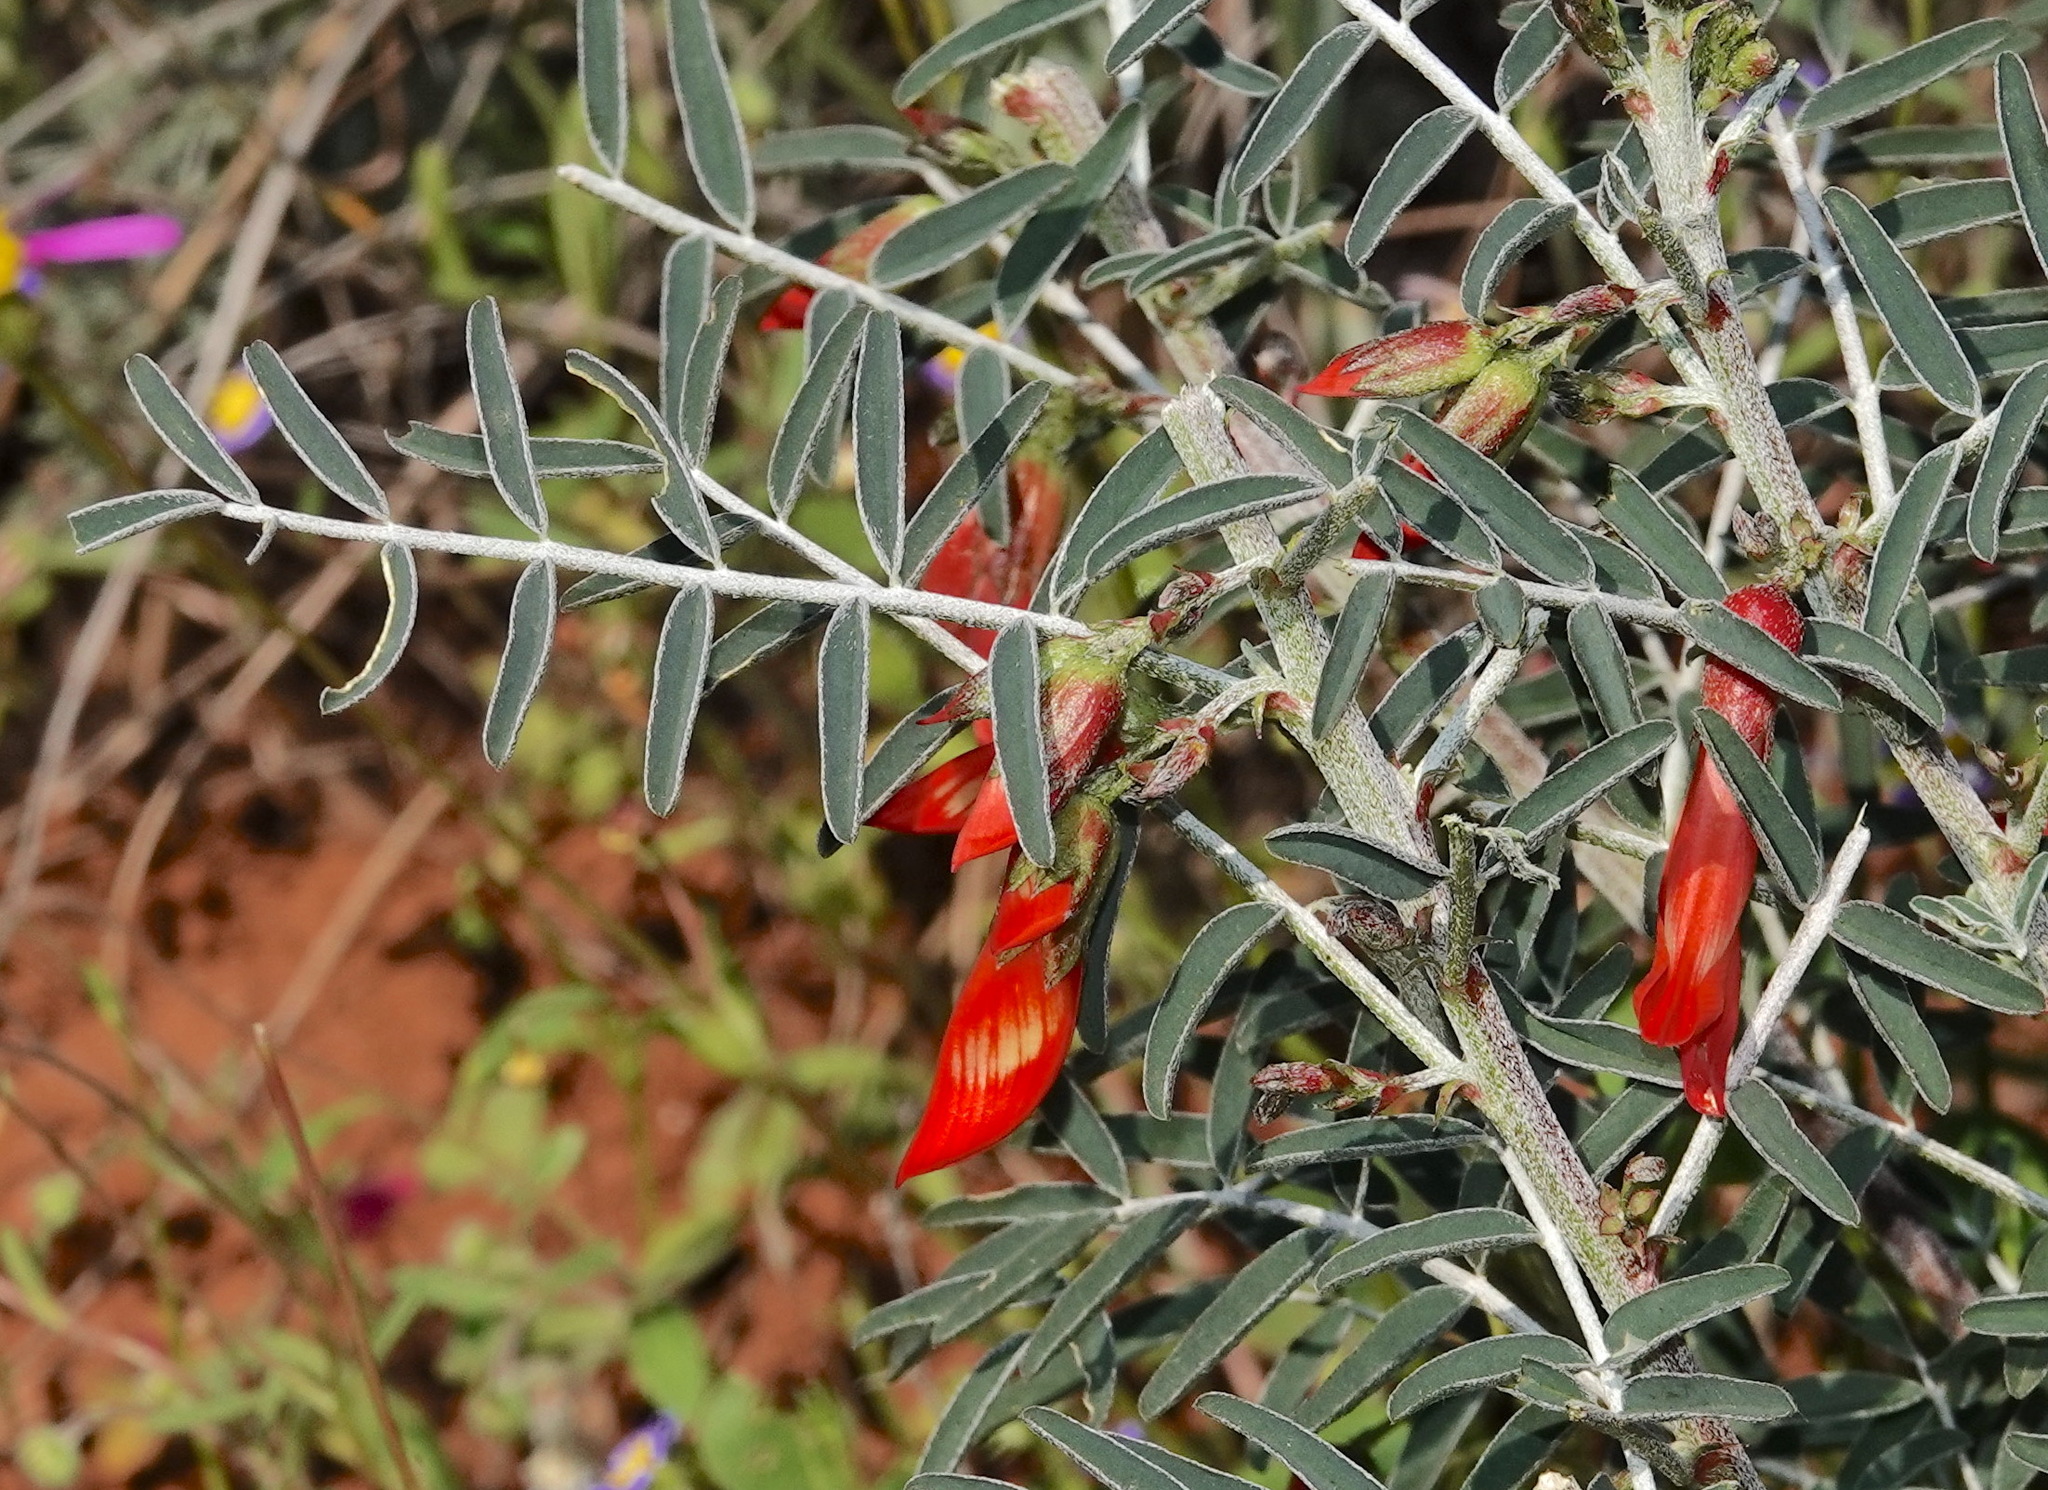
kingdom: Plantae
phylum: Tracheophyta
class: Magnoliopsida
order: Fabales
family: Fabaceae
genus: Lessertia
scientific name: Lessertia frutescens
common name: Balloon-pea
